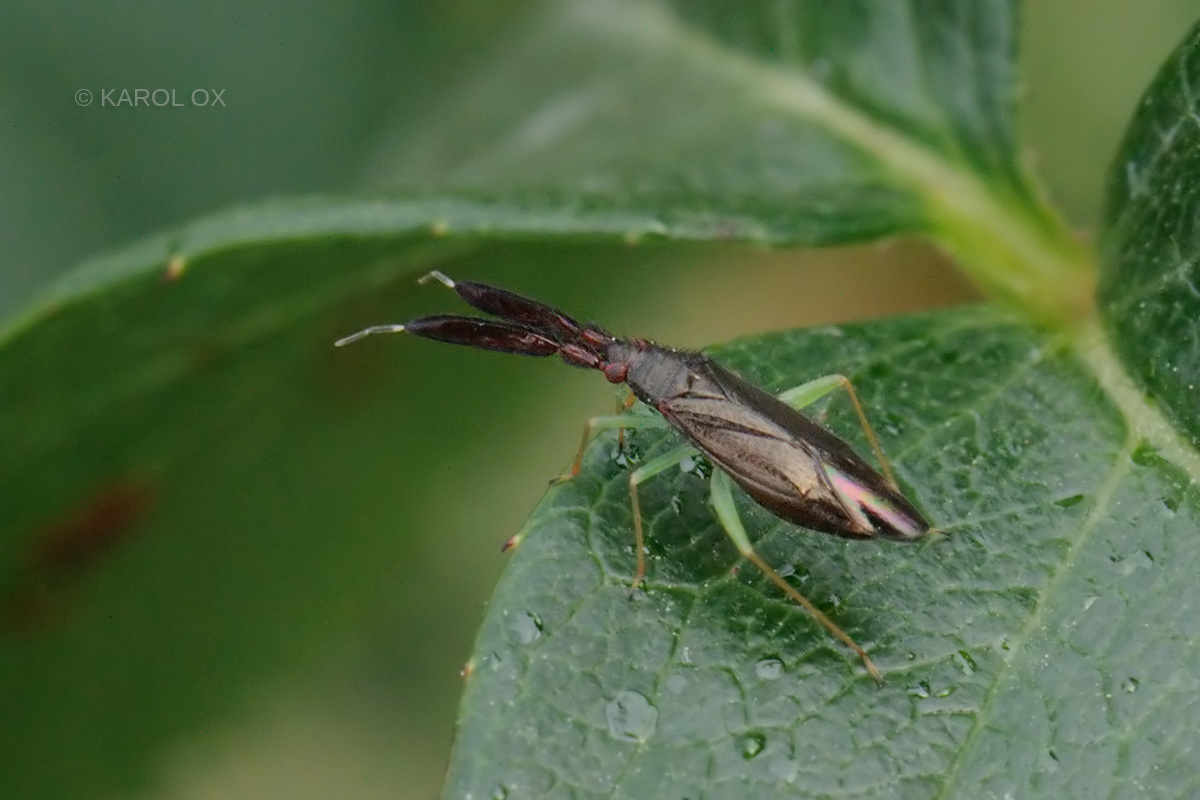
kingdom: Animalia
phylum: Arthropoda
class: Insecta
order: Hemiptera
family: Miridae
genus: Heterotoma
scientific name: Heterotoma planicornis
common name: Plant bug
